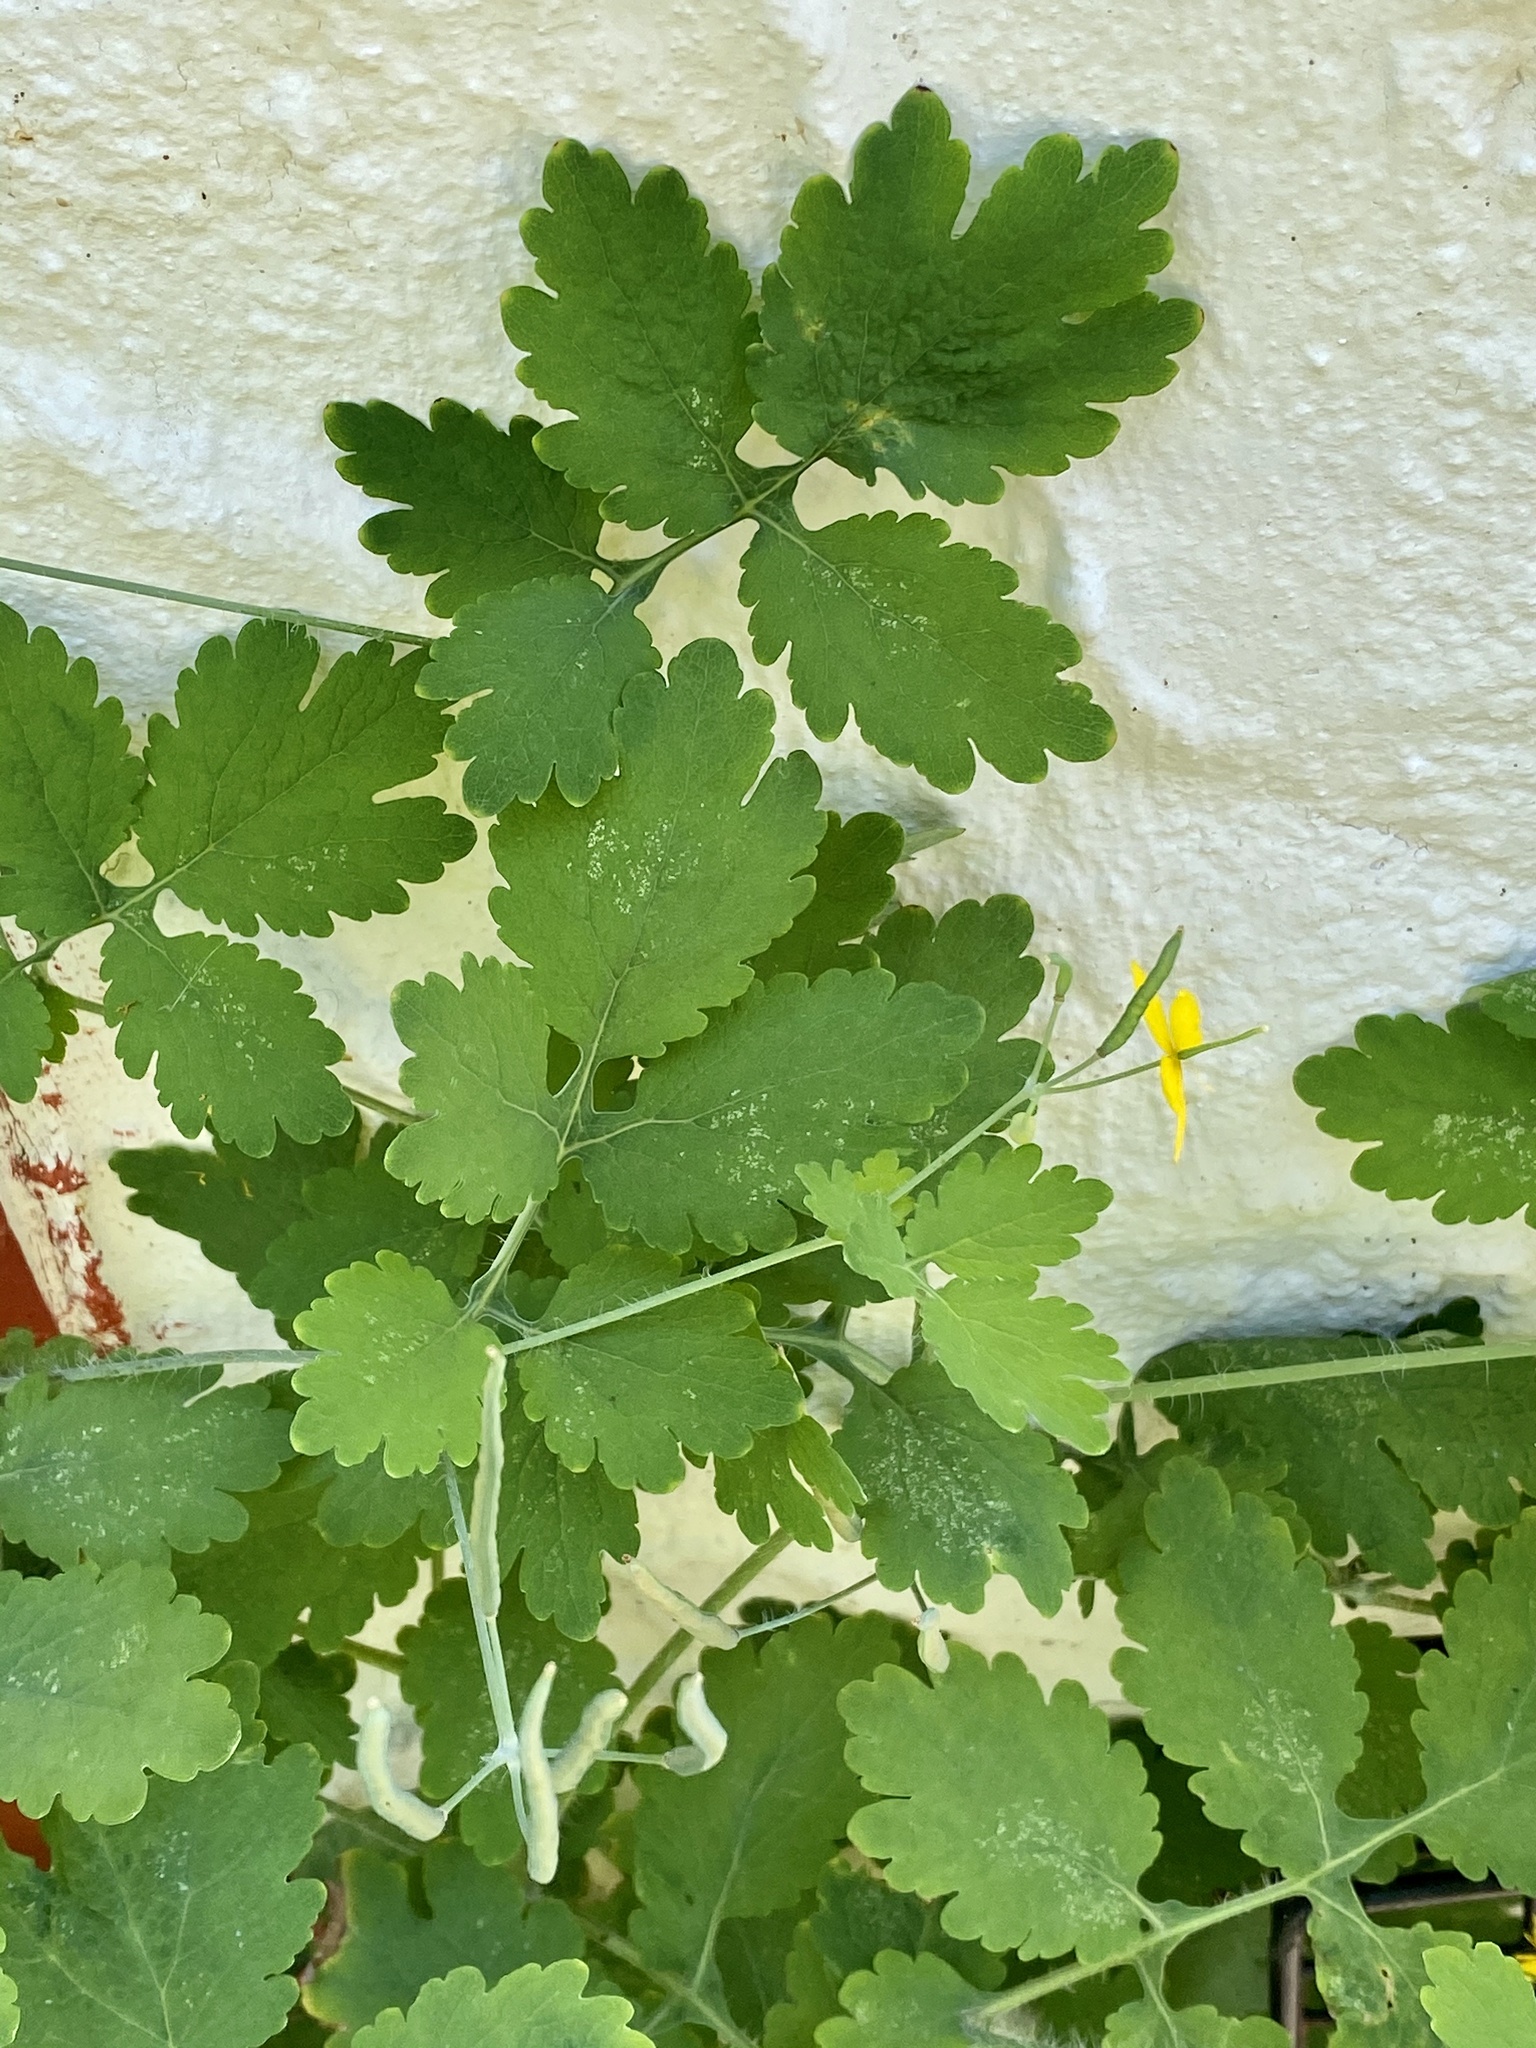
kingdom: Plantae
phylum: Tracheophyta
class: Magnoliopsida
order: Ranunculales
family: Papaveraceae
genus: Chelidonium
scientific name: Chelidonium majus
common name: Greater celandine
